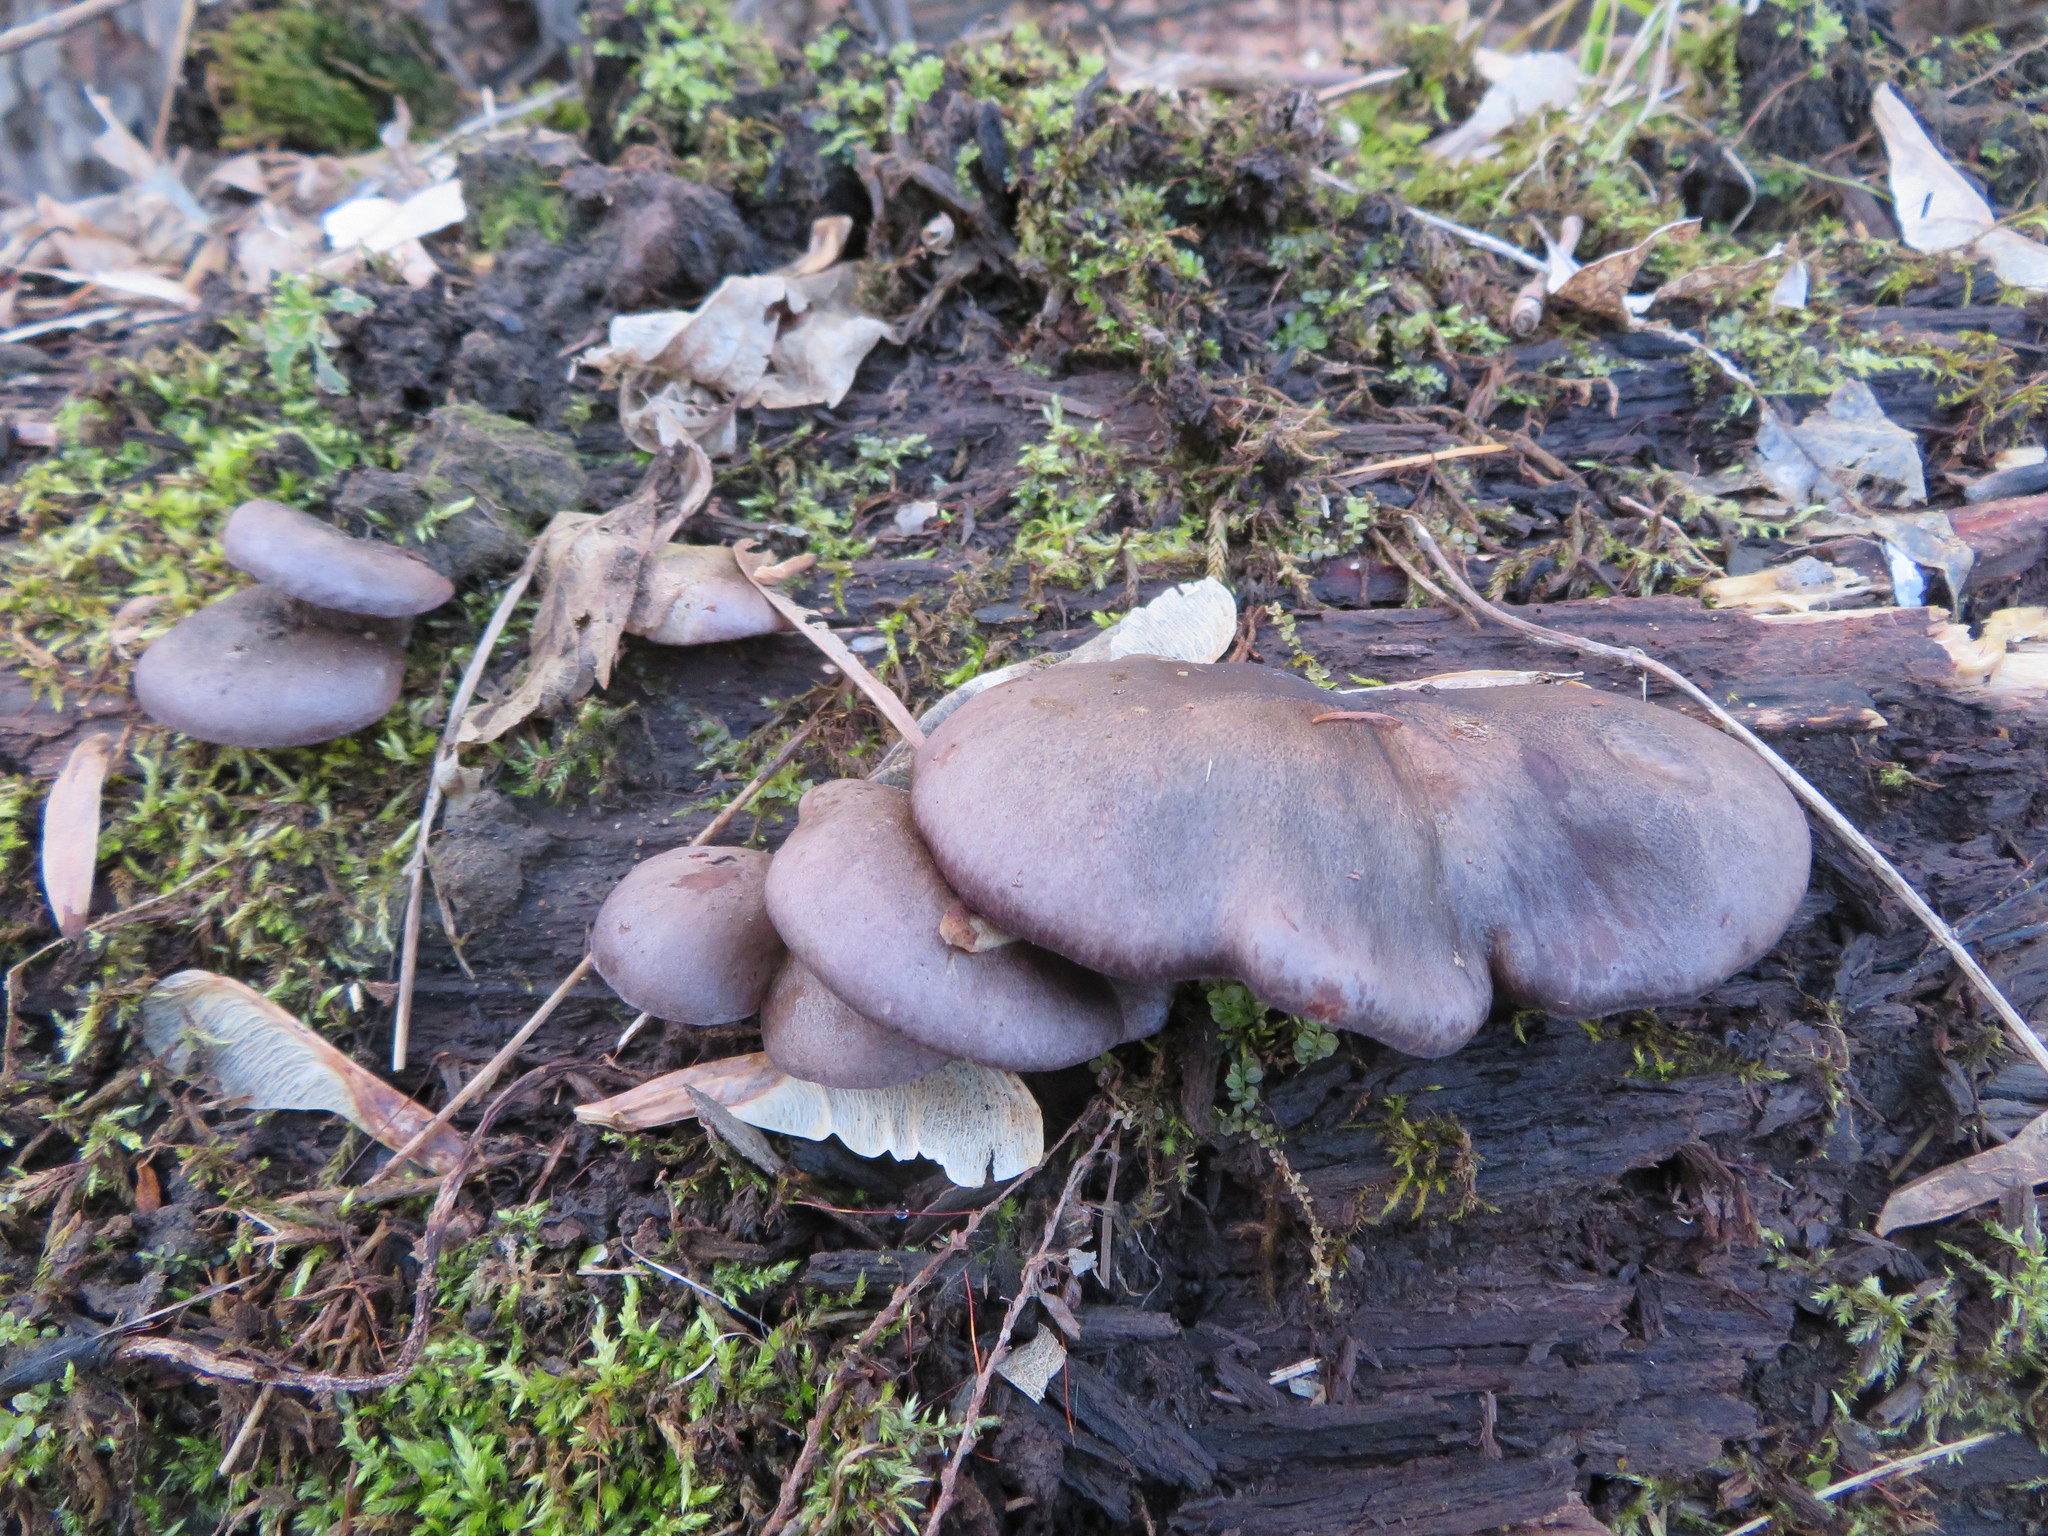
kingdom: Fungi
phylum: Basidiomycota
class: Agaricomycetes
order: Agaricales
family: Sarcomyxaceae
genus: Sarcomyxa
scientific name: Sarcomyxa serotina
